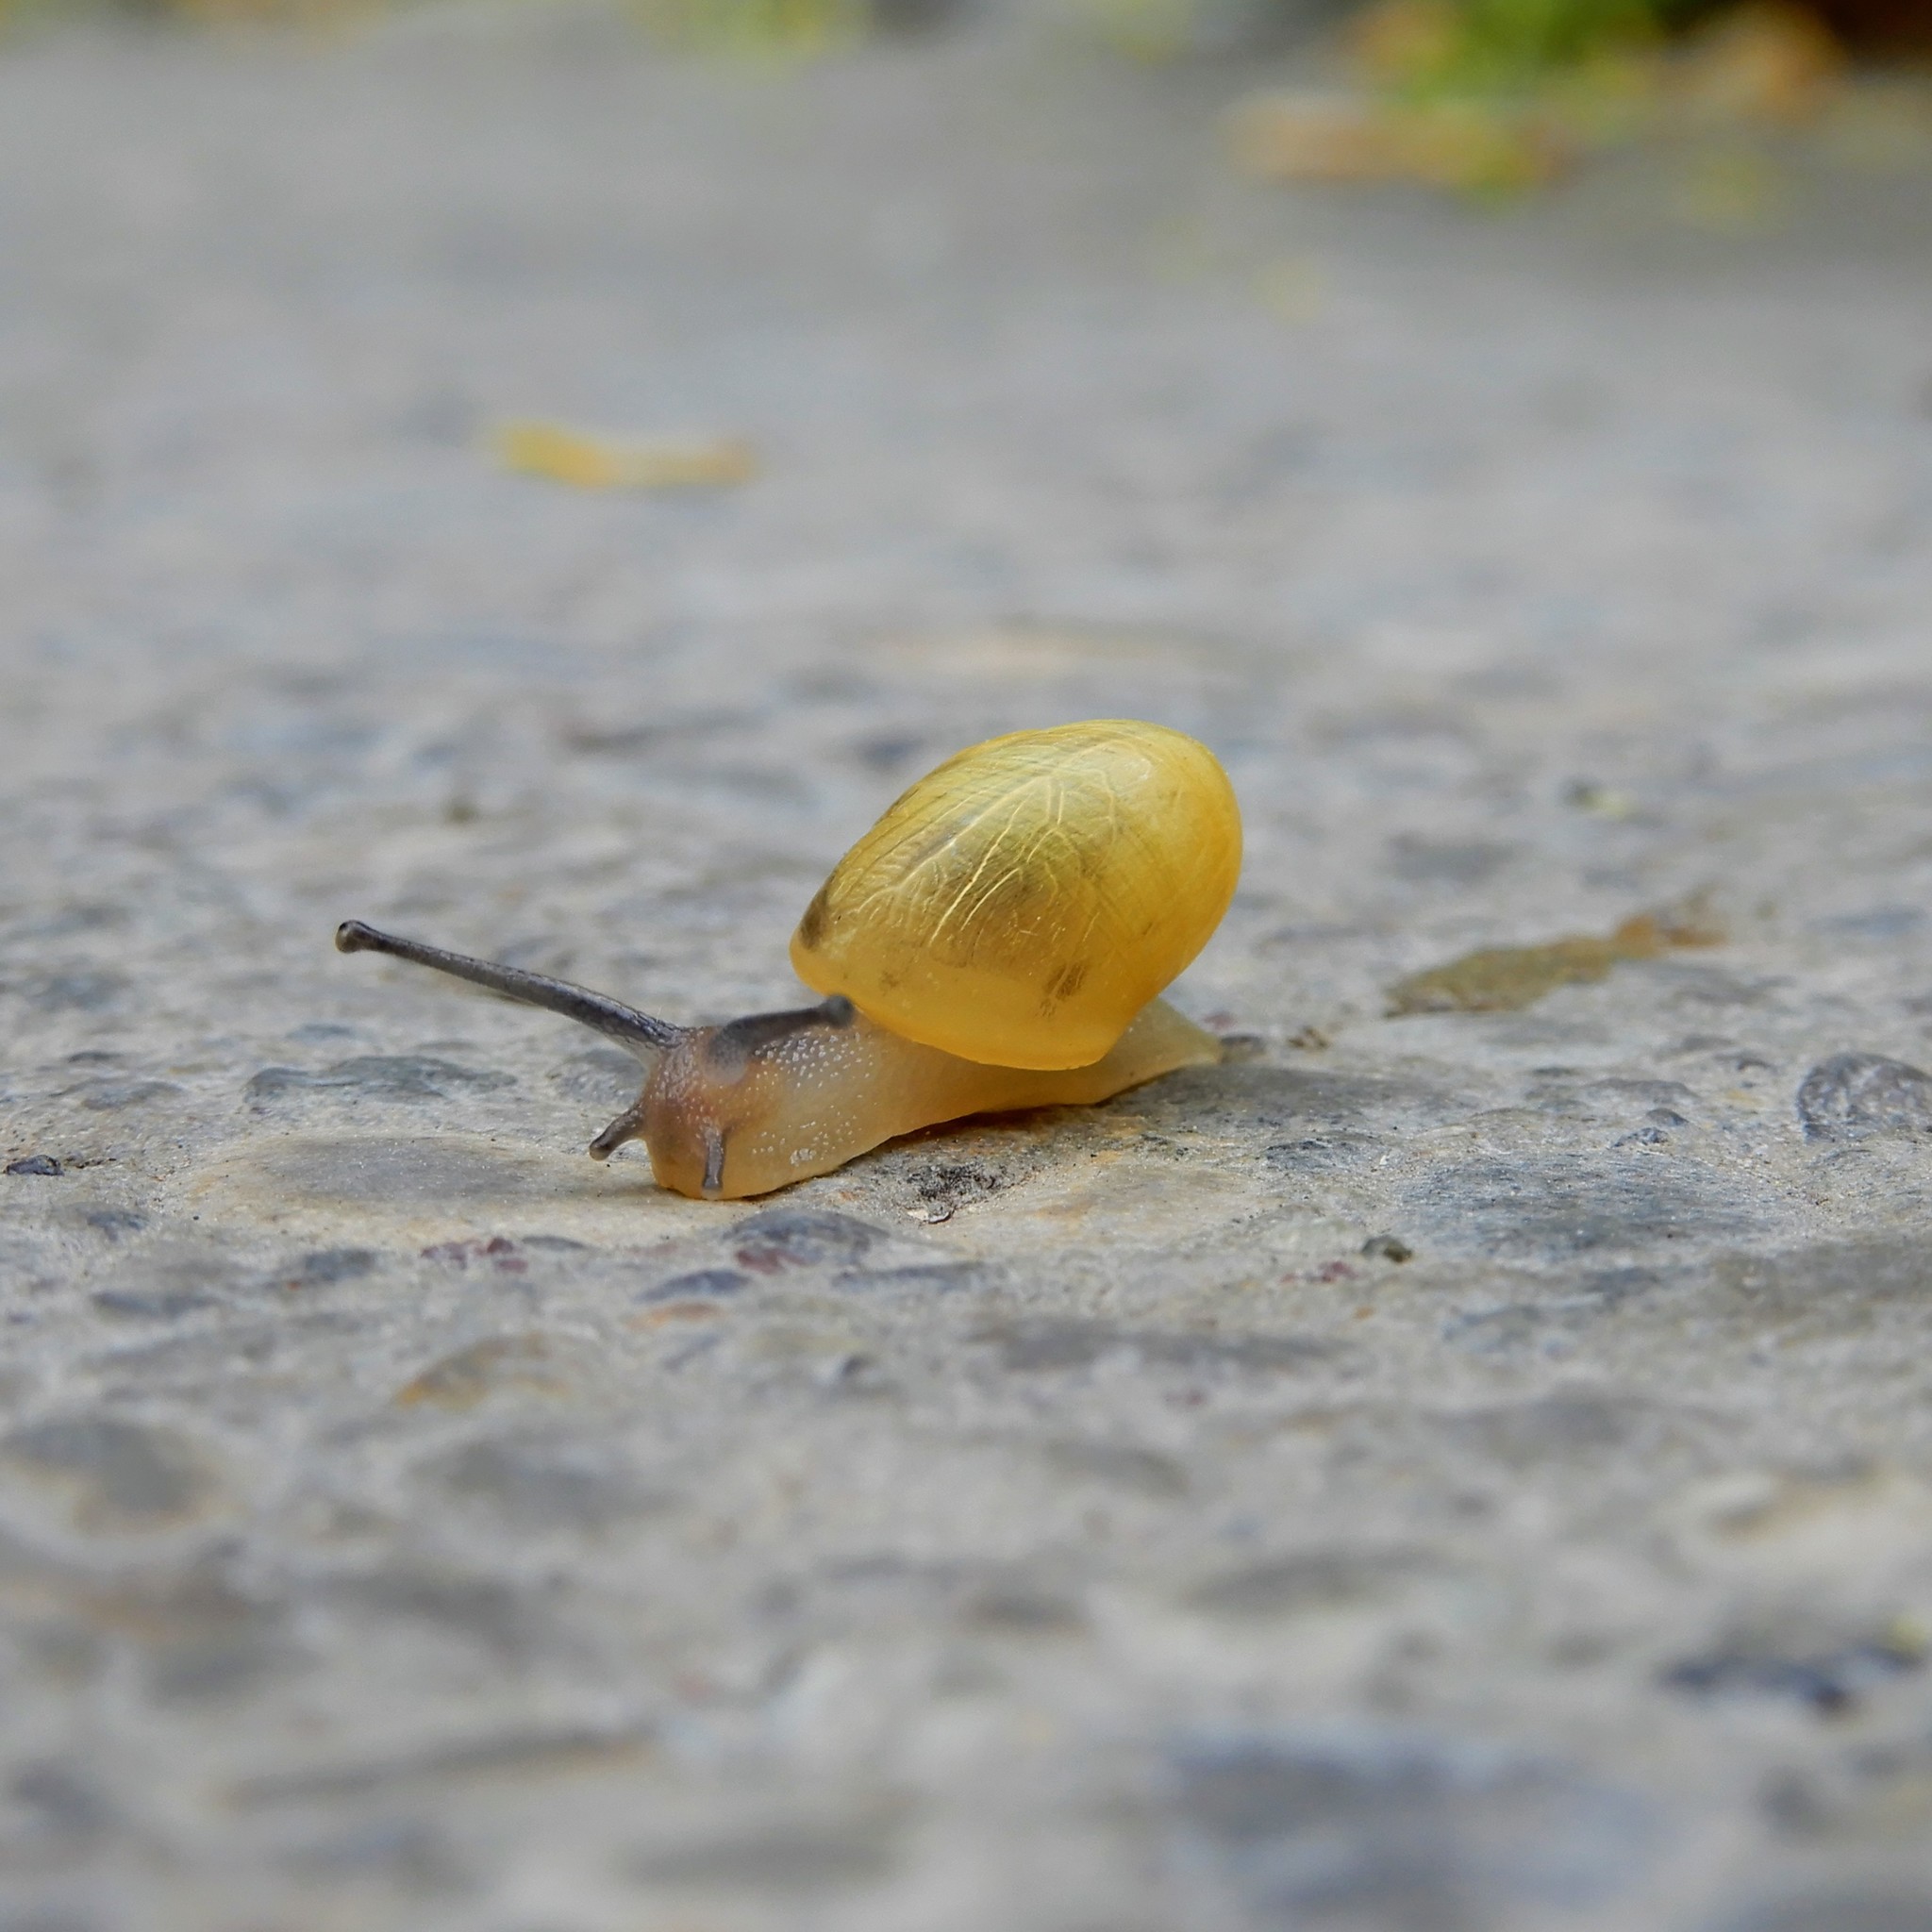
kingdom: Animalia
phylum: Mollusca
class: Gastropoda
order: Stylommatophora
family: Helicidae
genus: Cepaea
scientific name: Cepaea
